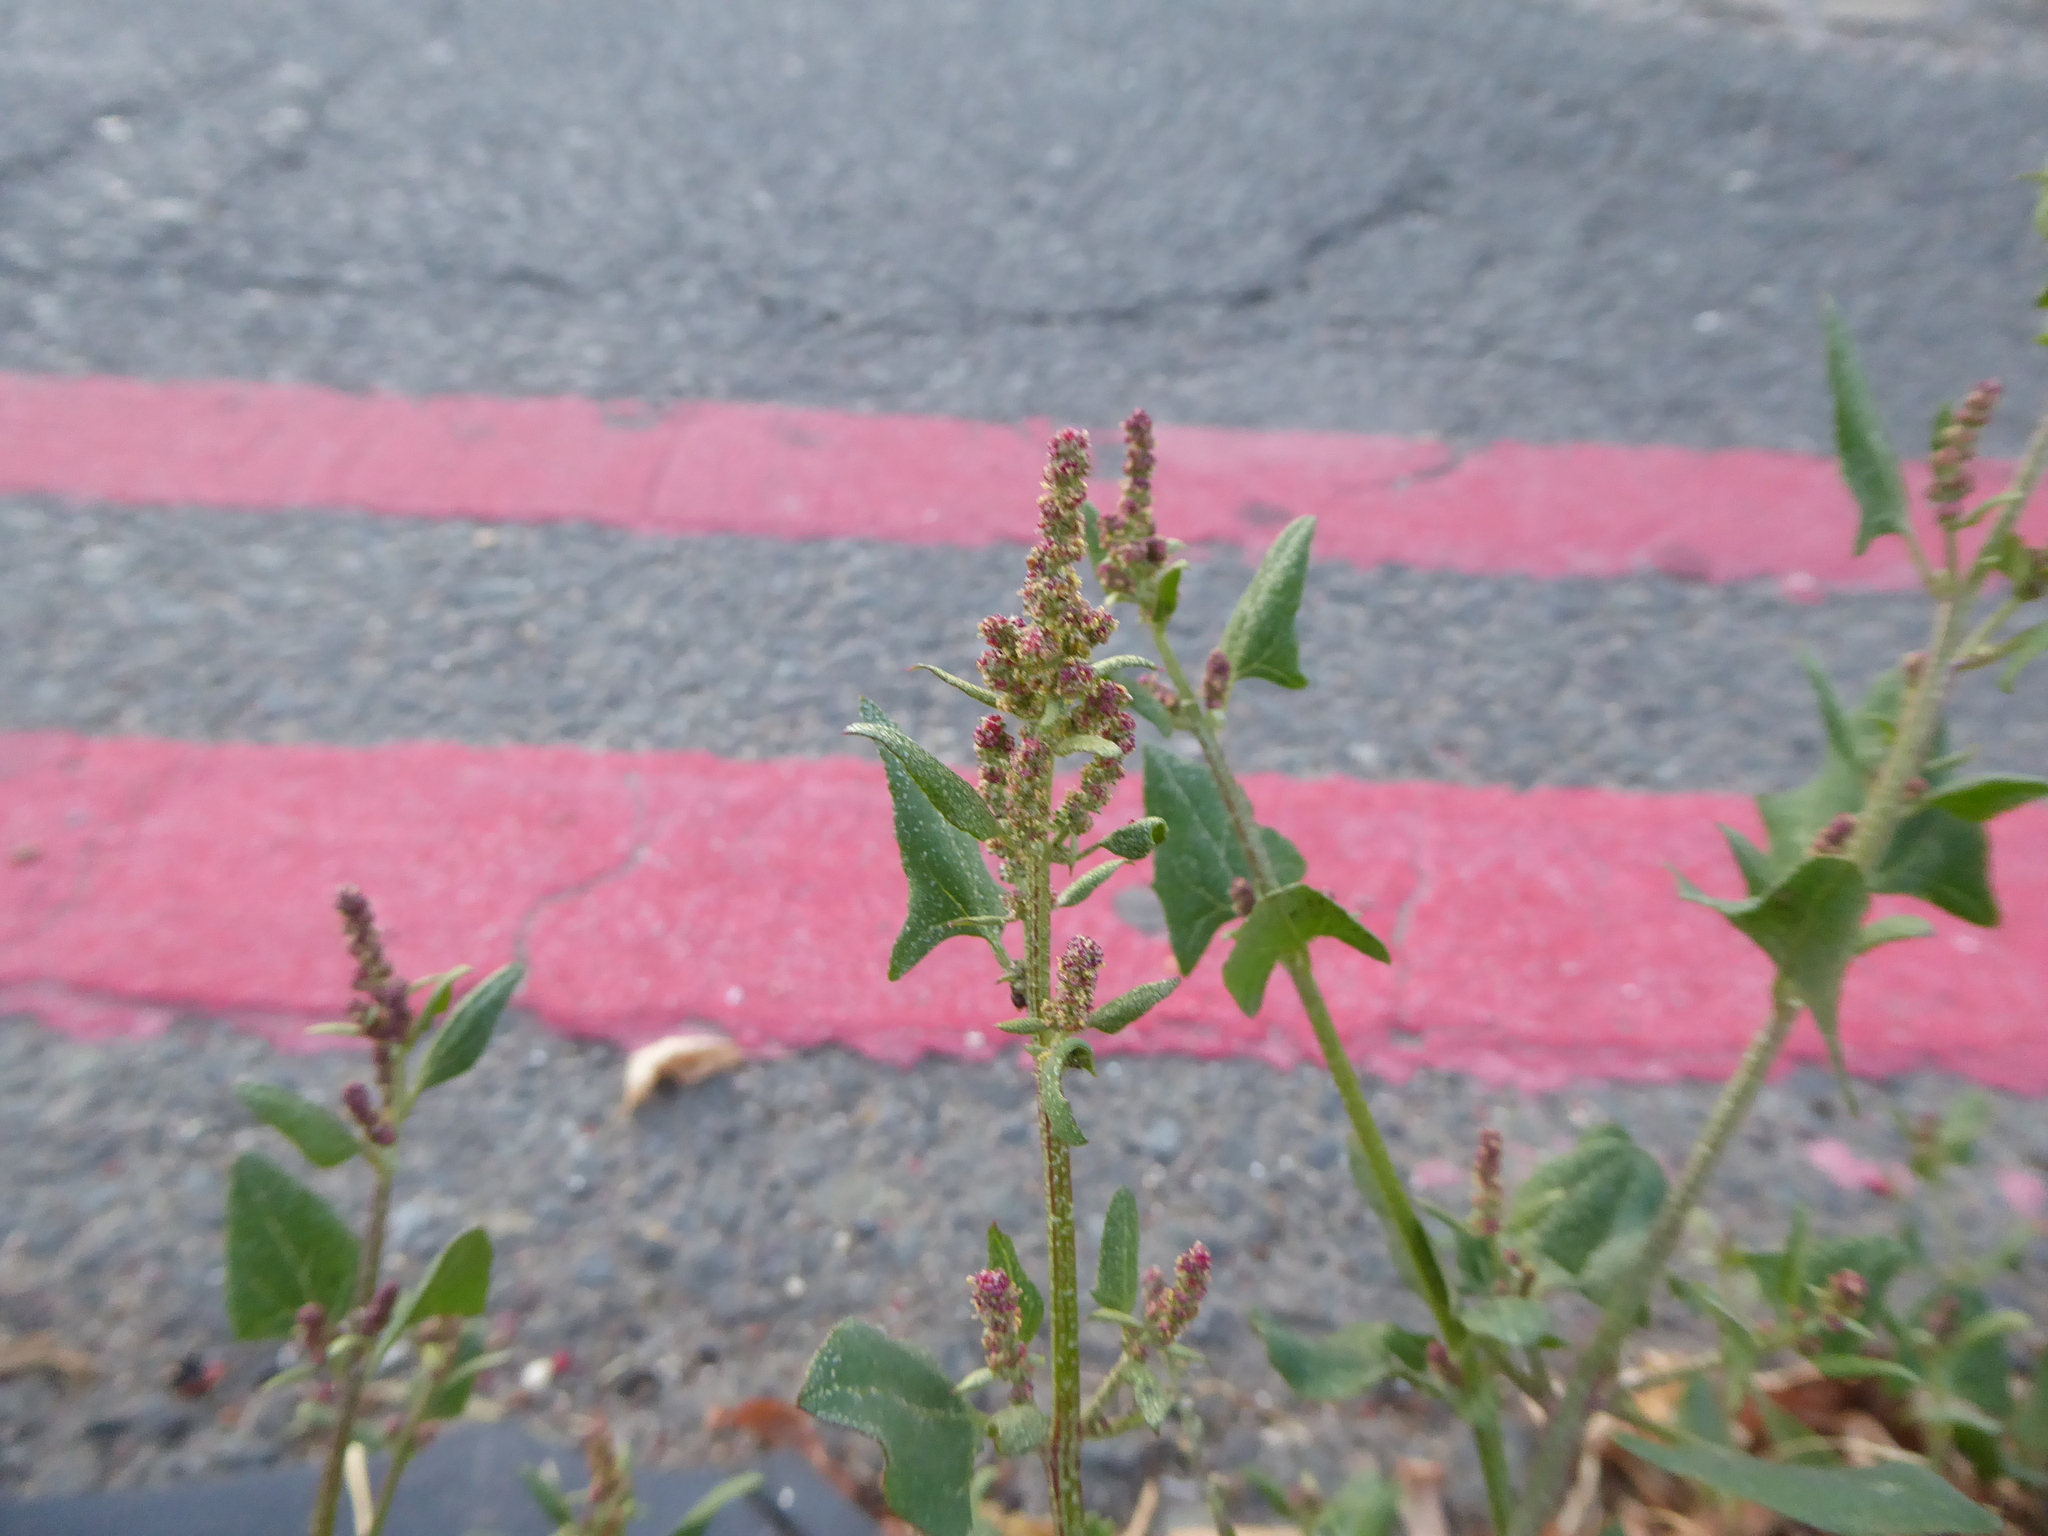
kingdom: Plantae
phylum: Tracheophyta
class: Magnoliopsida
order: Caryophyllales
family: Amaranthaceae
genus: Atriplex
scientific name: Atriplex prostrata
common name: Spear-leaved orache
